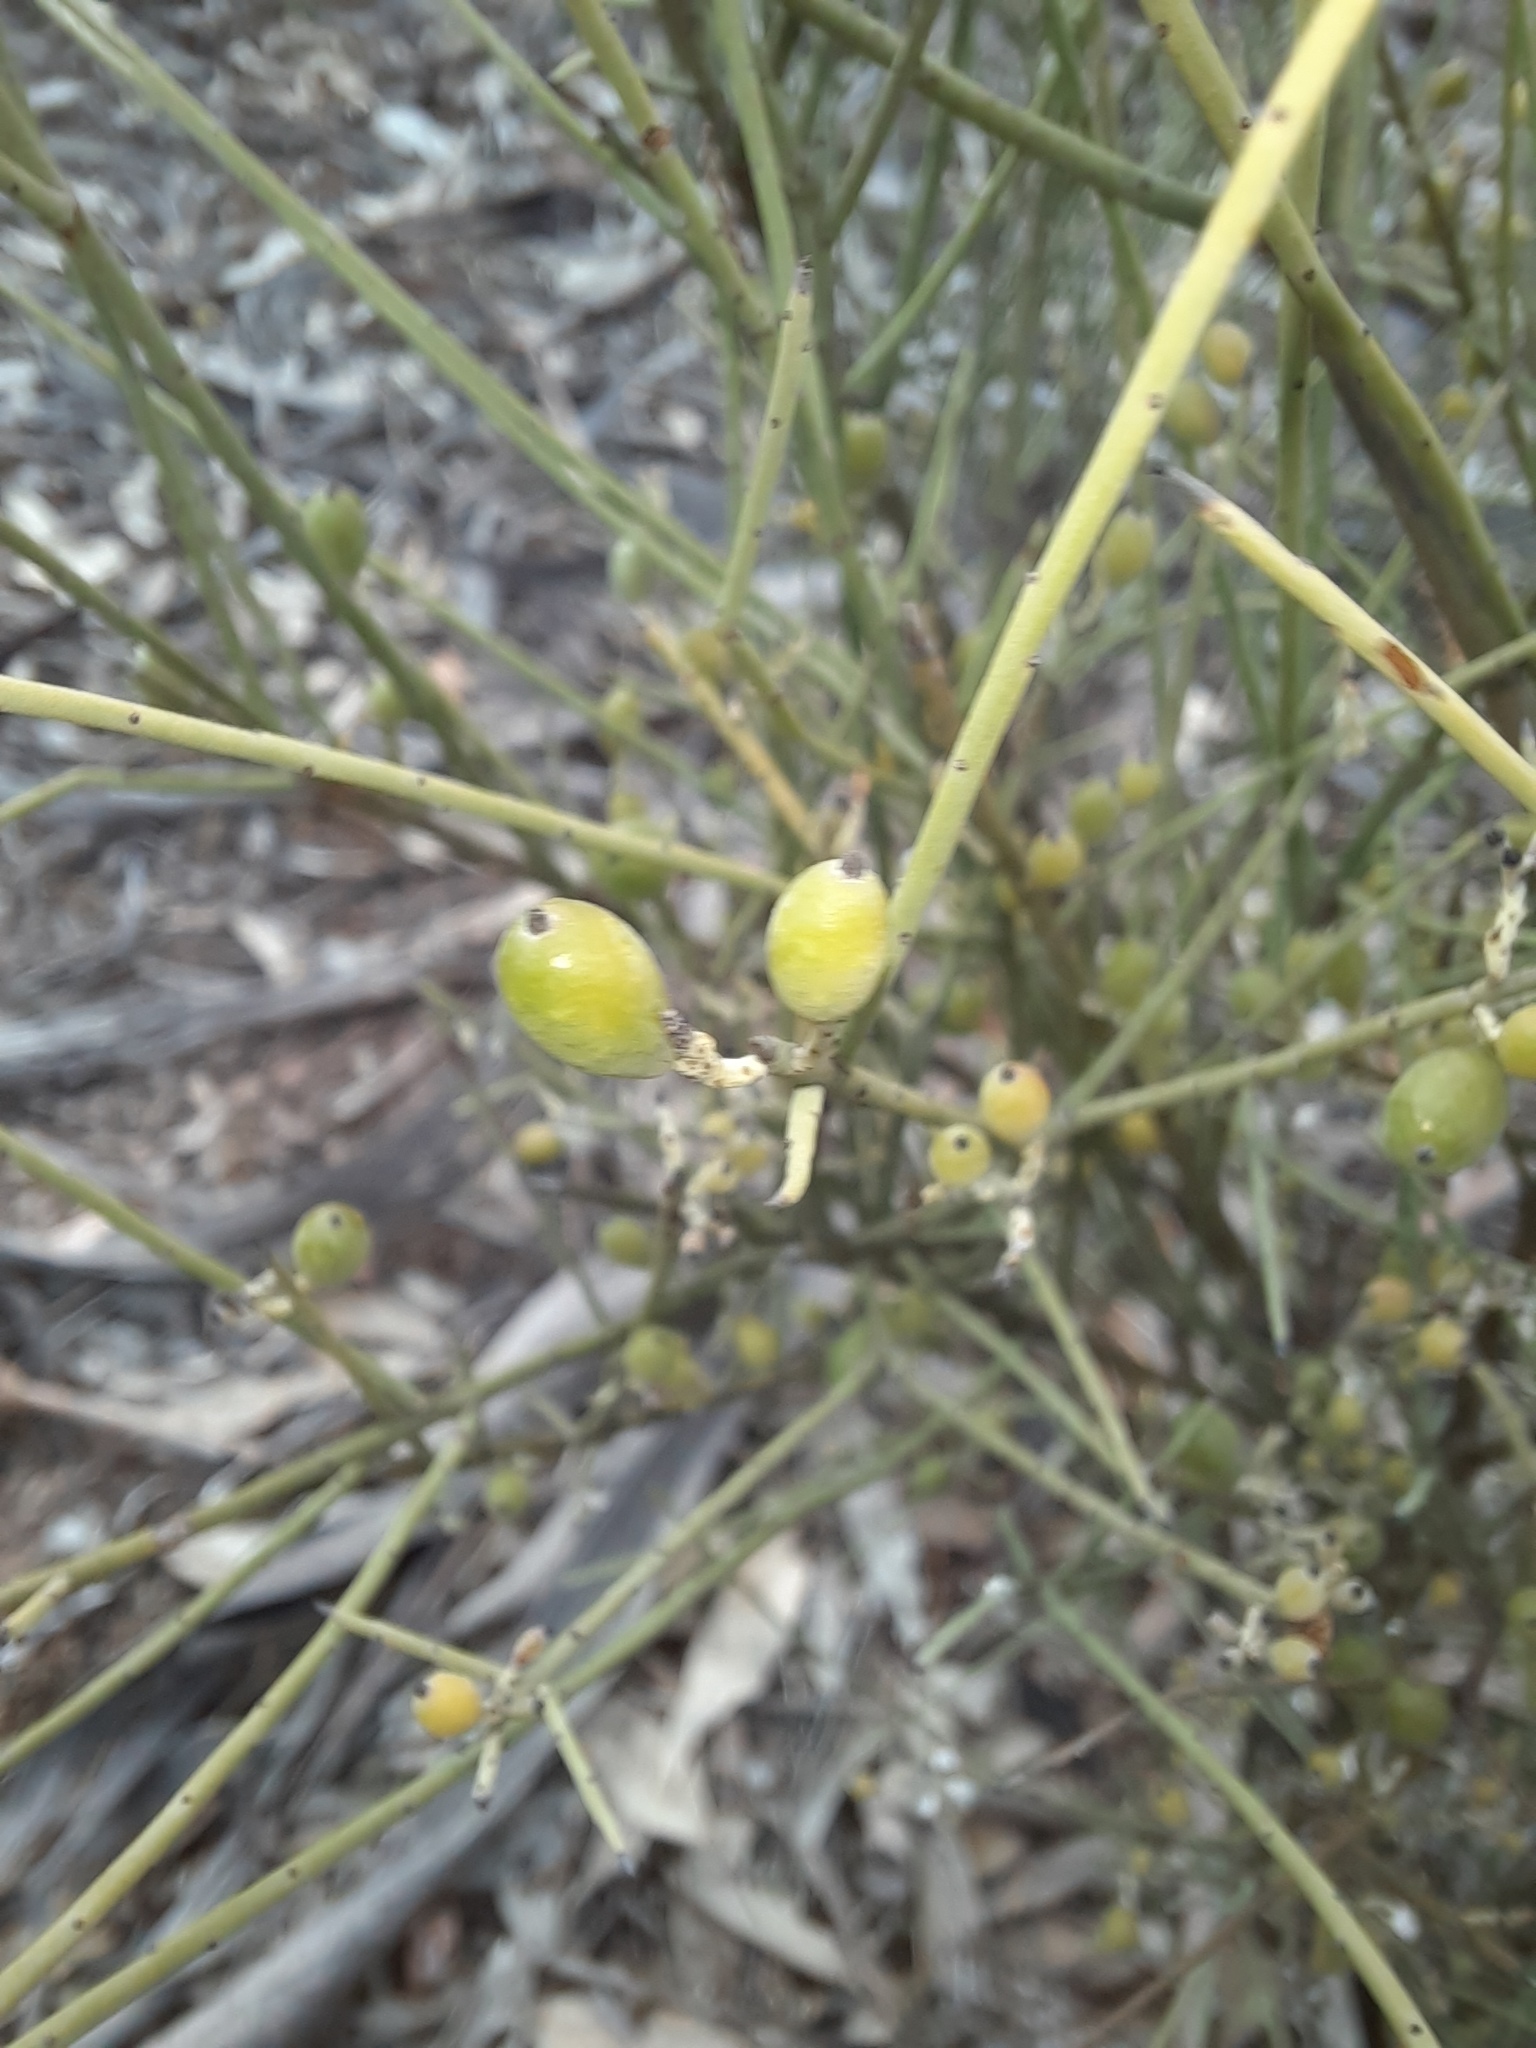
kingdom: Plantae
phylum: Tracheophyta
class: Magnoliopsida
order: Santalales
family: Amphorogynaceae
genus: Leptomeria
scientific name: Leptomeria aphylla
